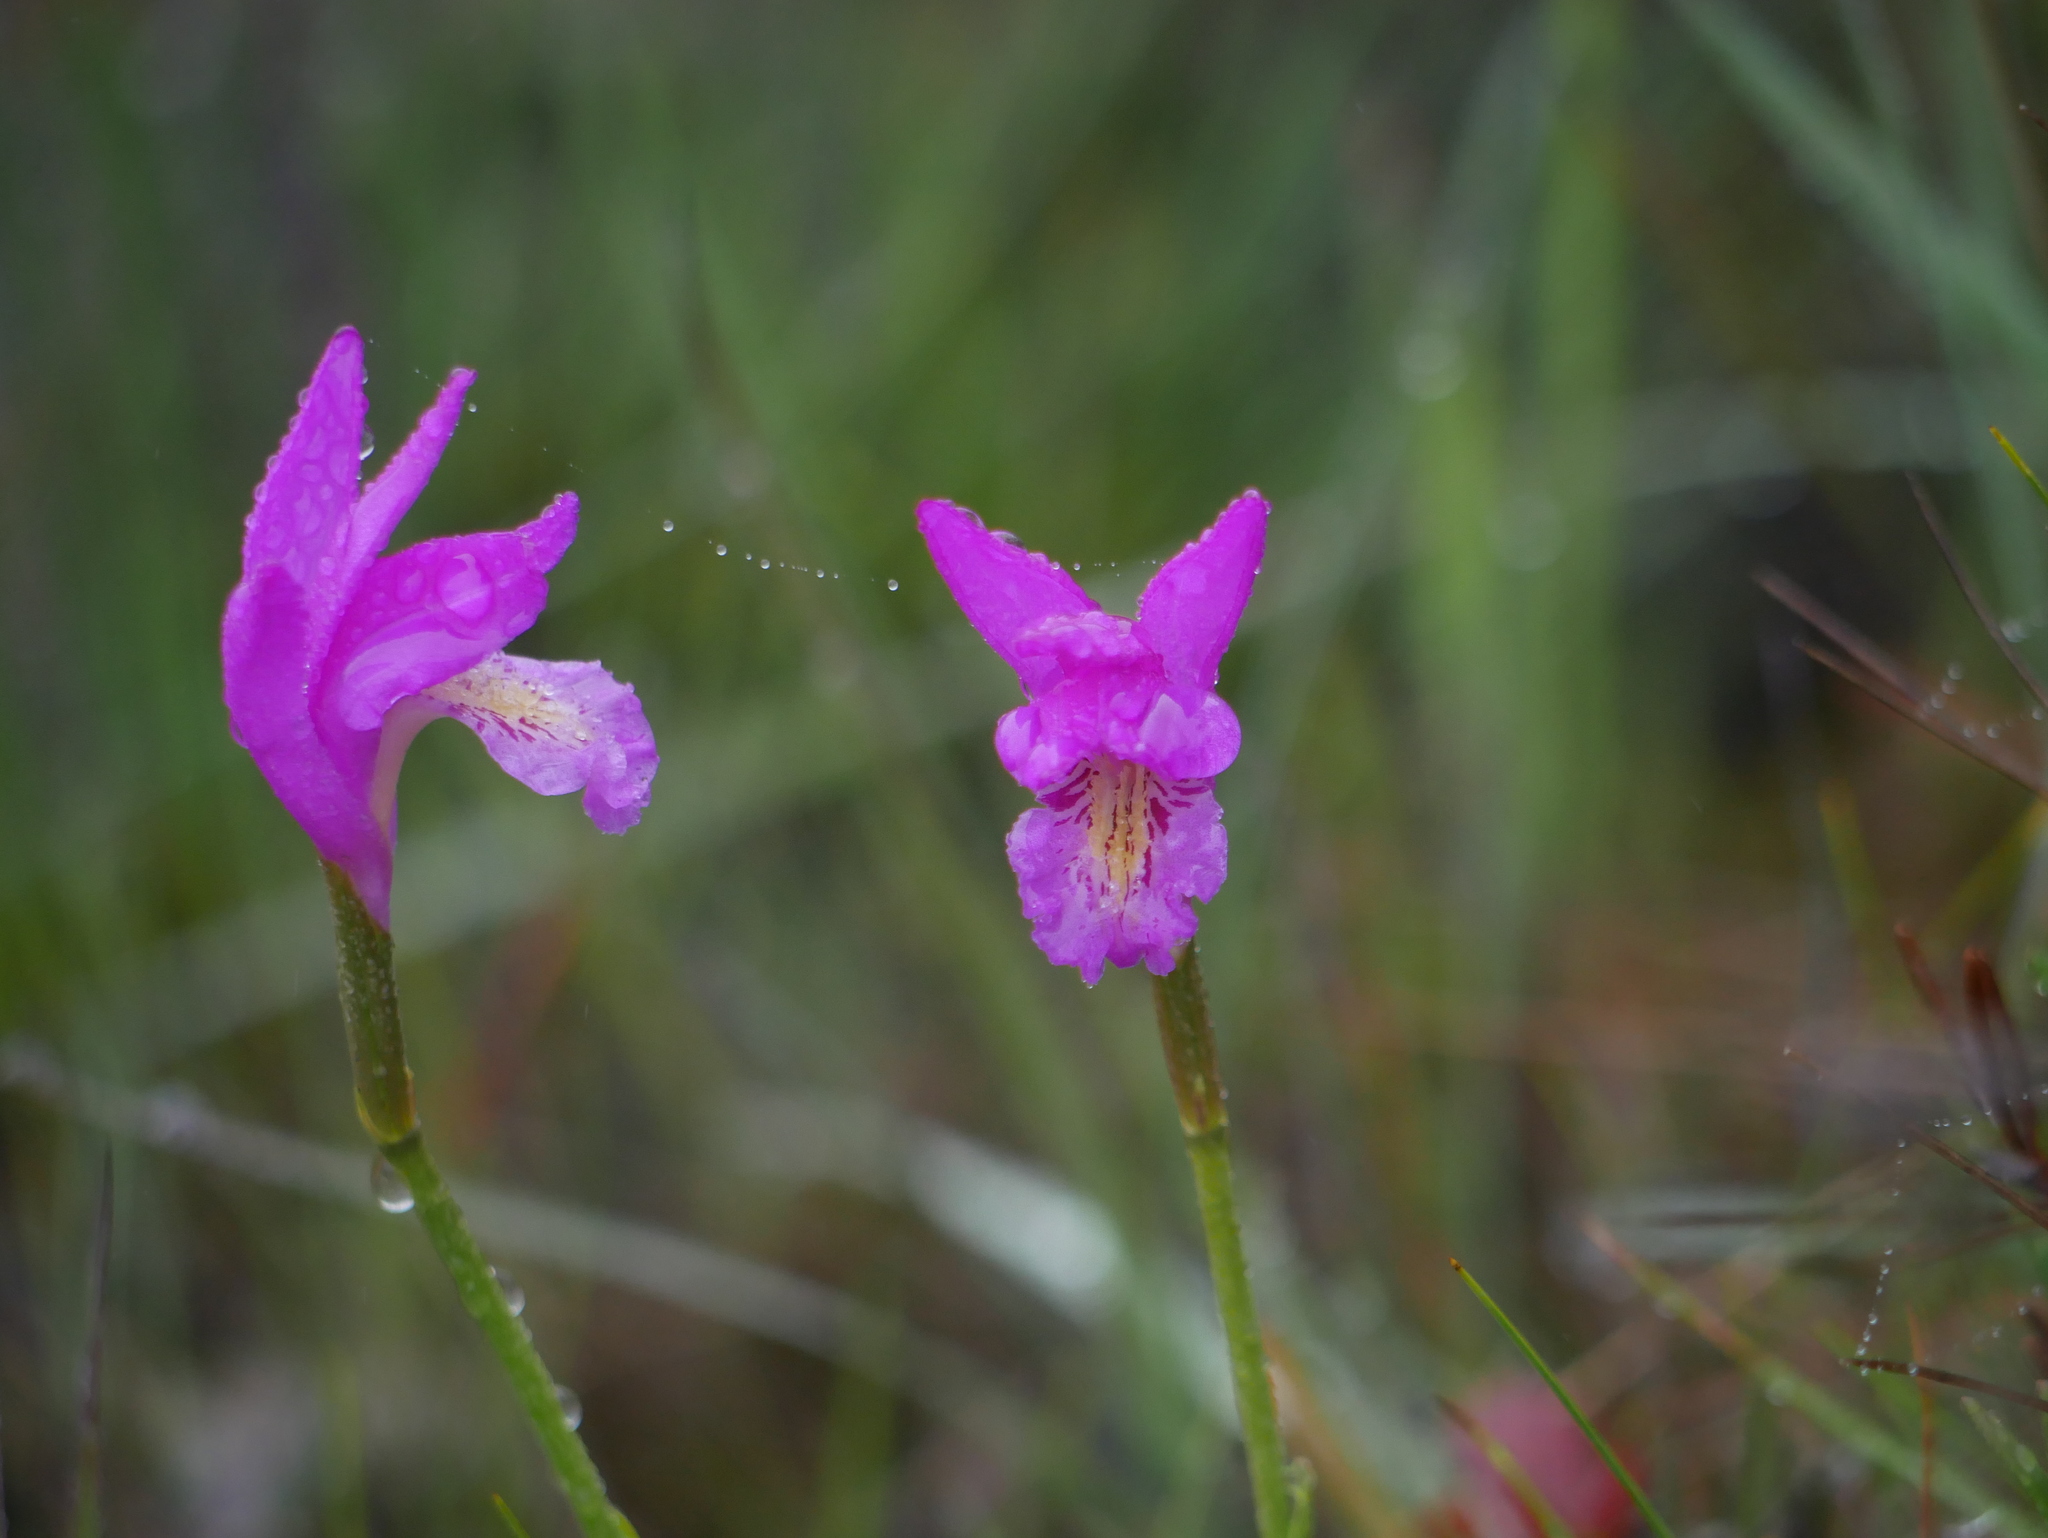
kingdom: Plantae
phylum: Tracheophyta
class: Liliopsida
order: Asparagales
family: Orchidaceae
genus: Arethusa
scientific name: Arethusa bulbosa
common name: Arethusa
